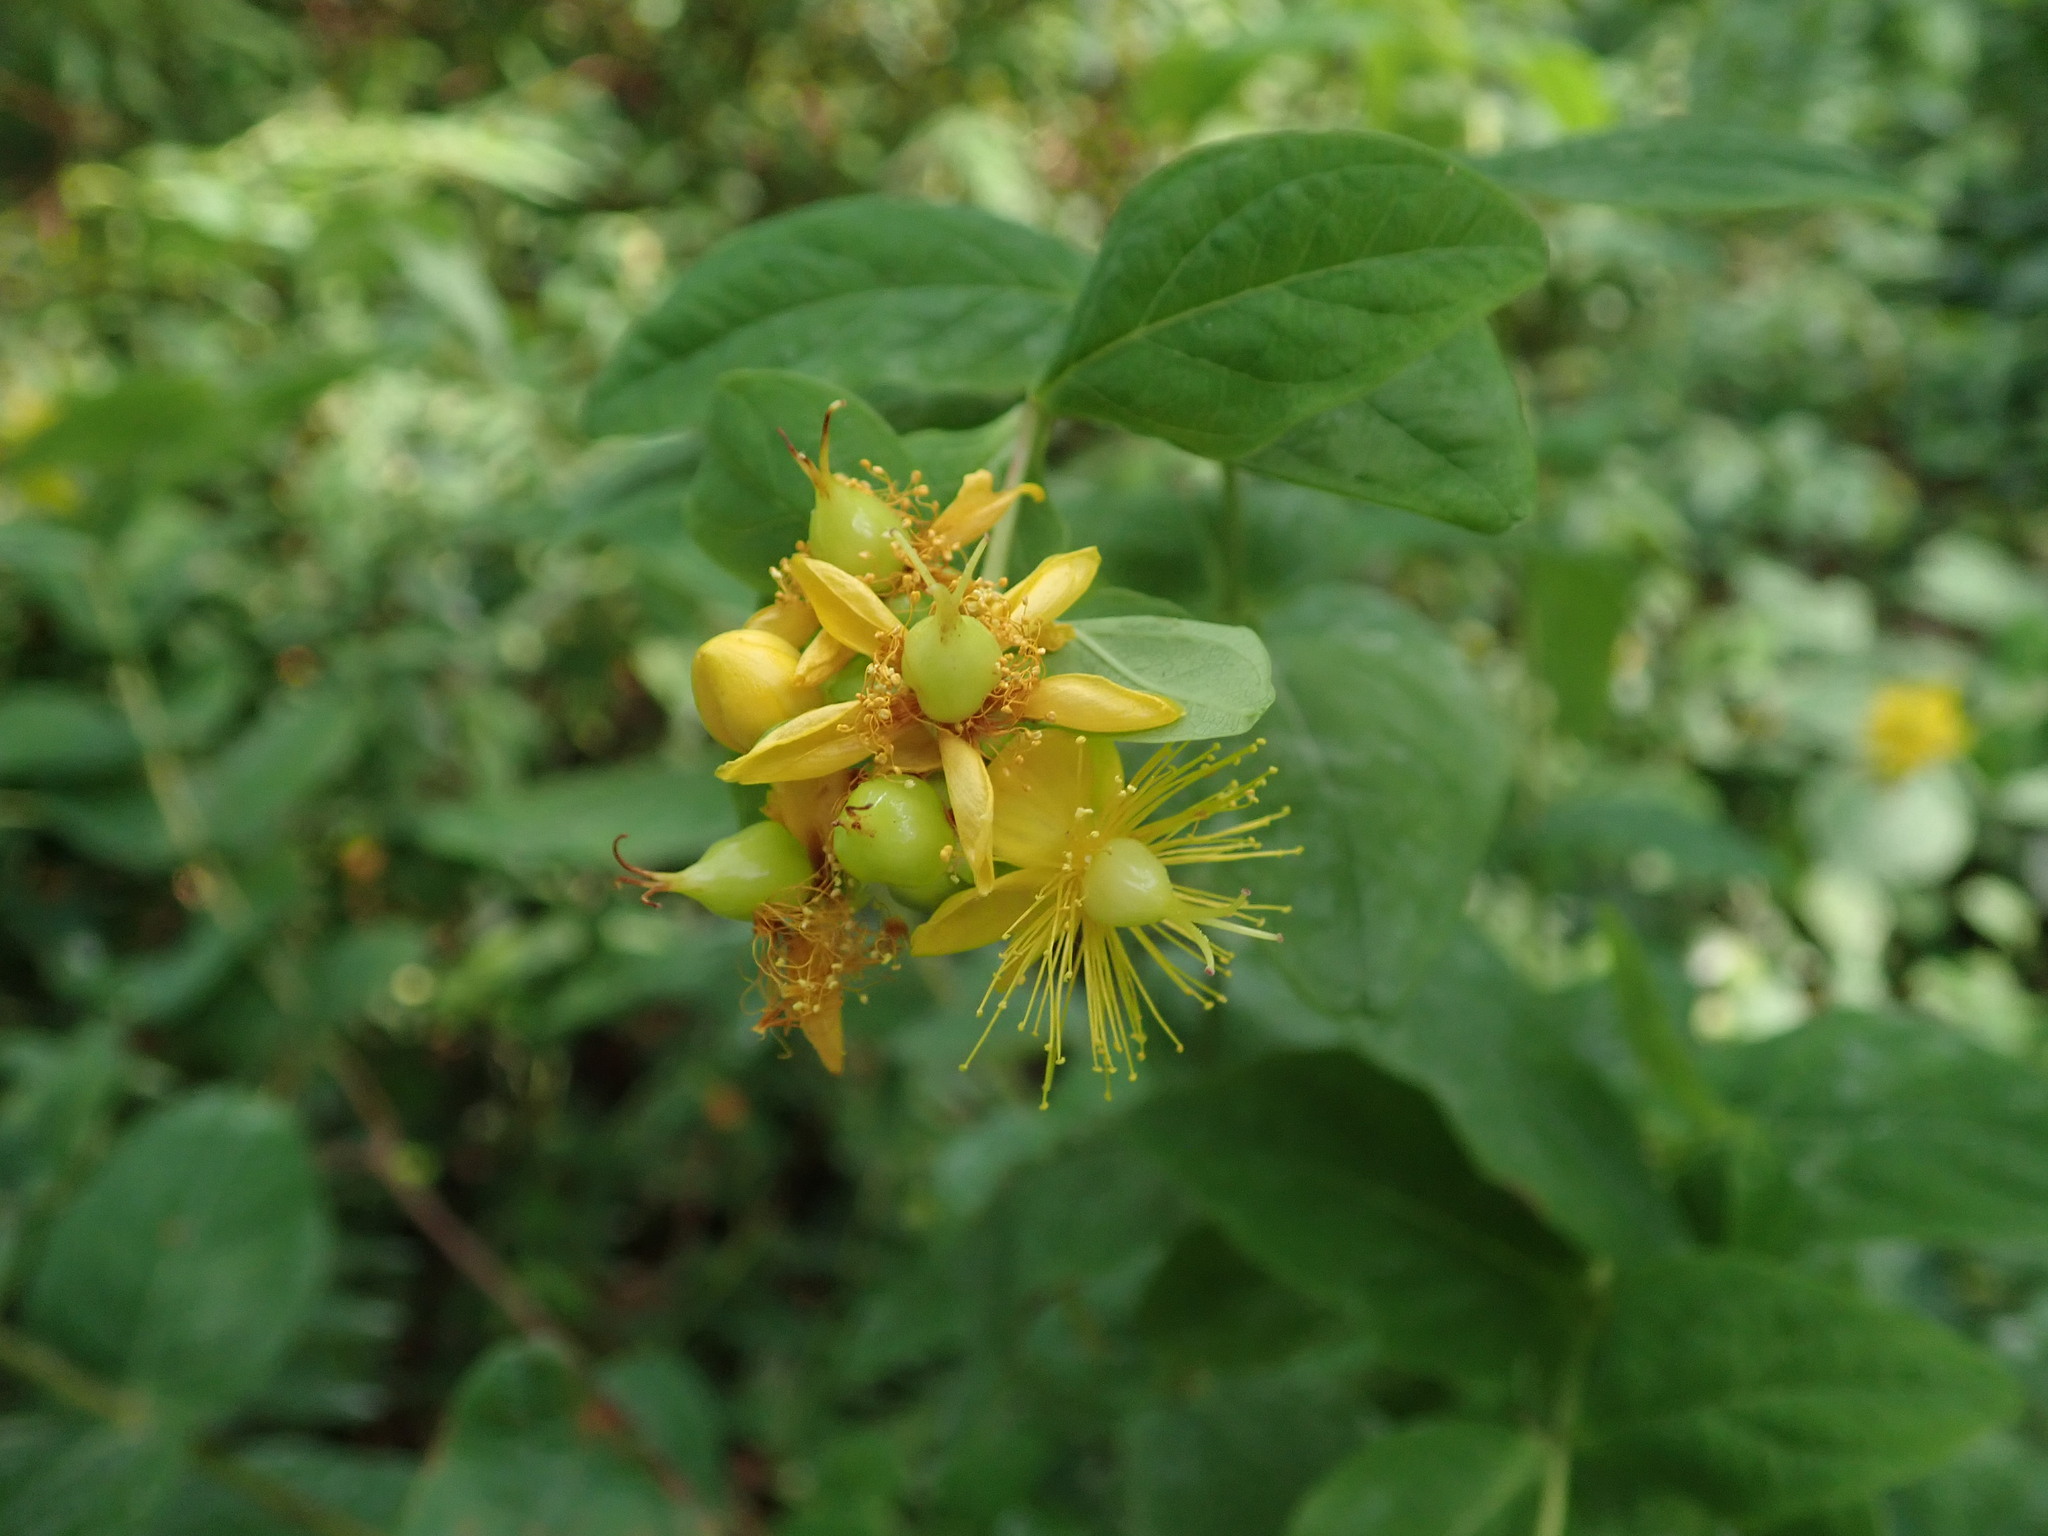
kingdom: Plantae
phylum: Tracheophyta
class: Magnoliopsida
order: Malpighiales
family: Hypericaceae
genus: Hypericum
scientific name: Hypericum androsaemum
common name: Sweet-amber
